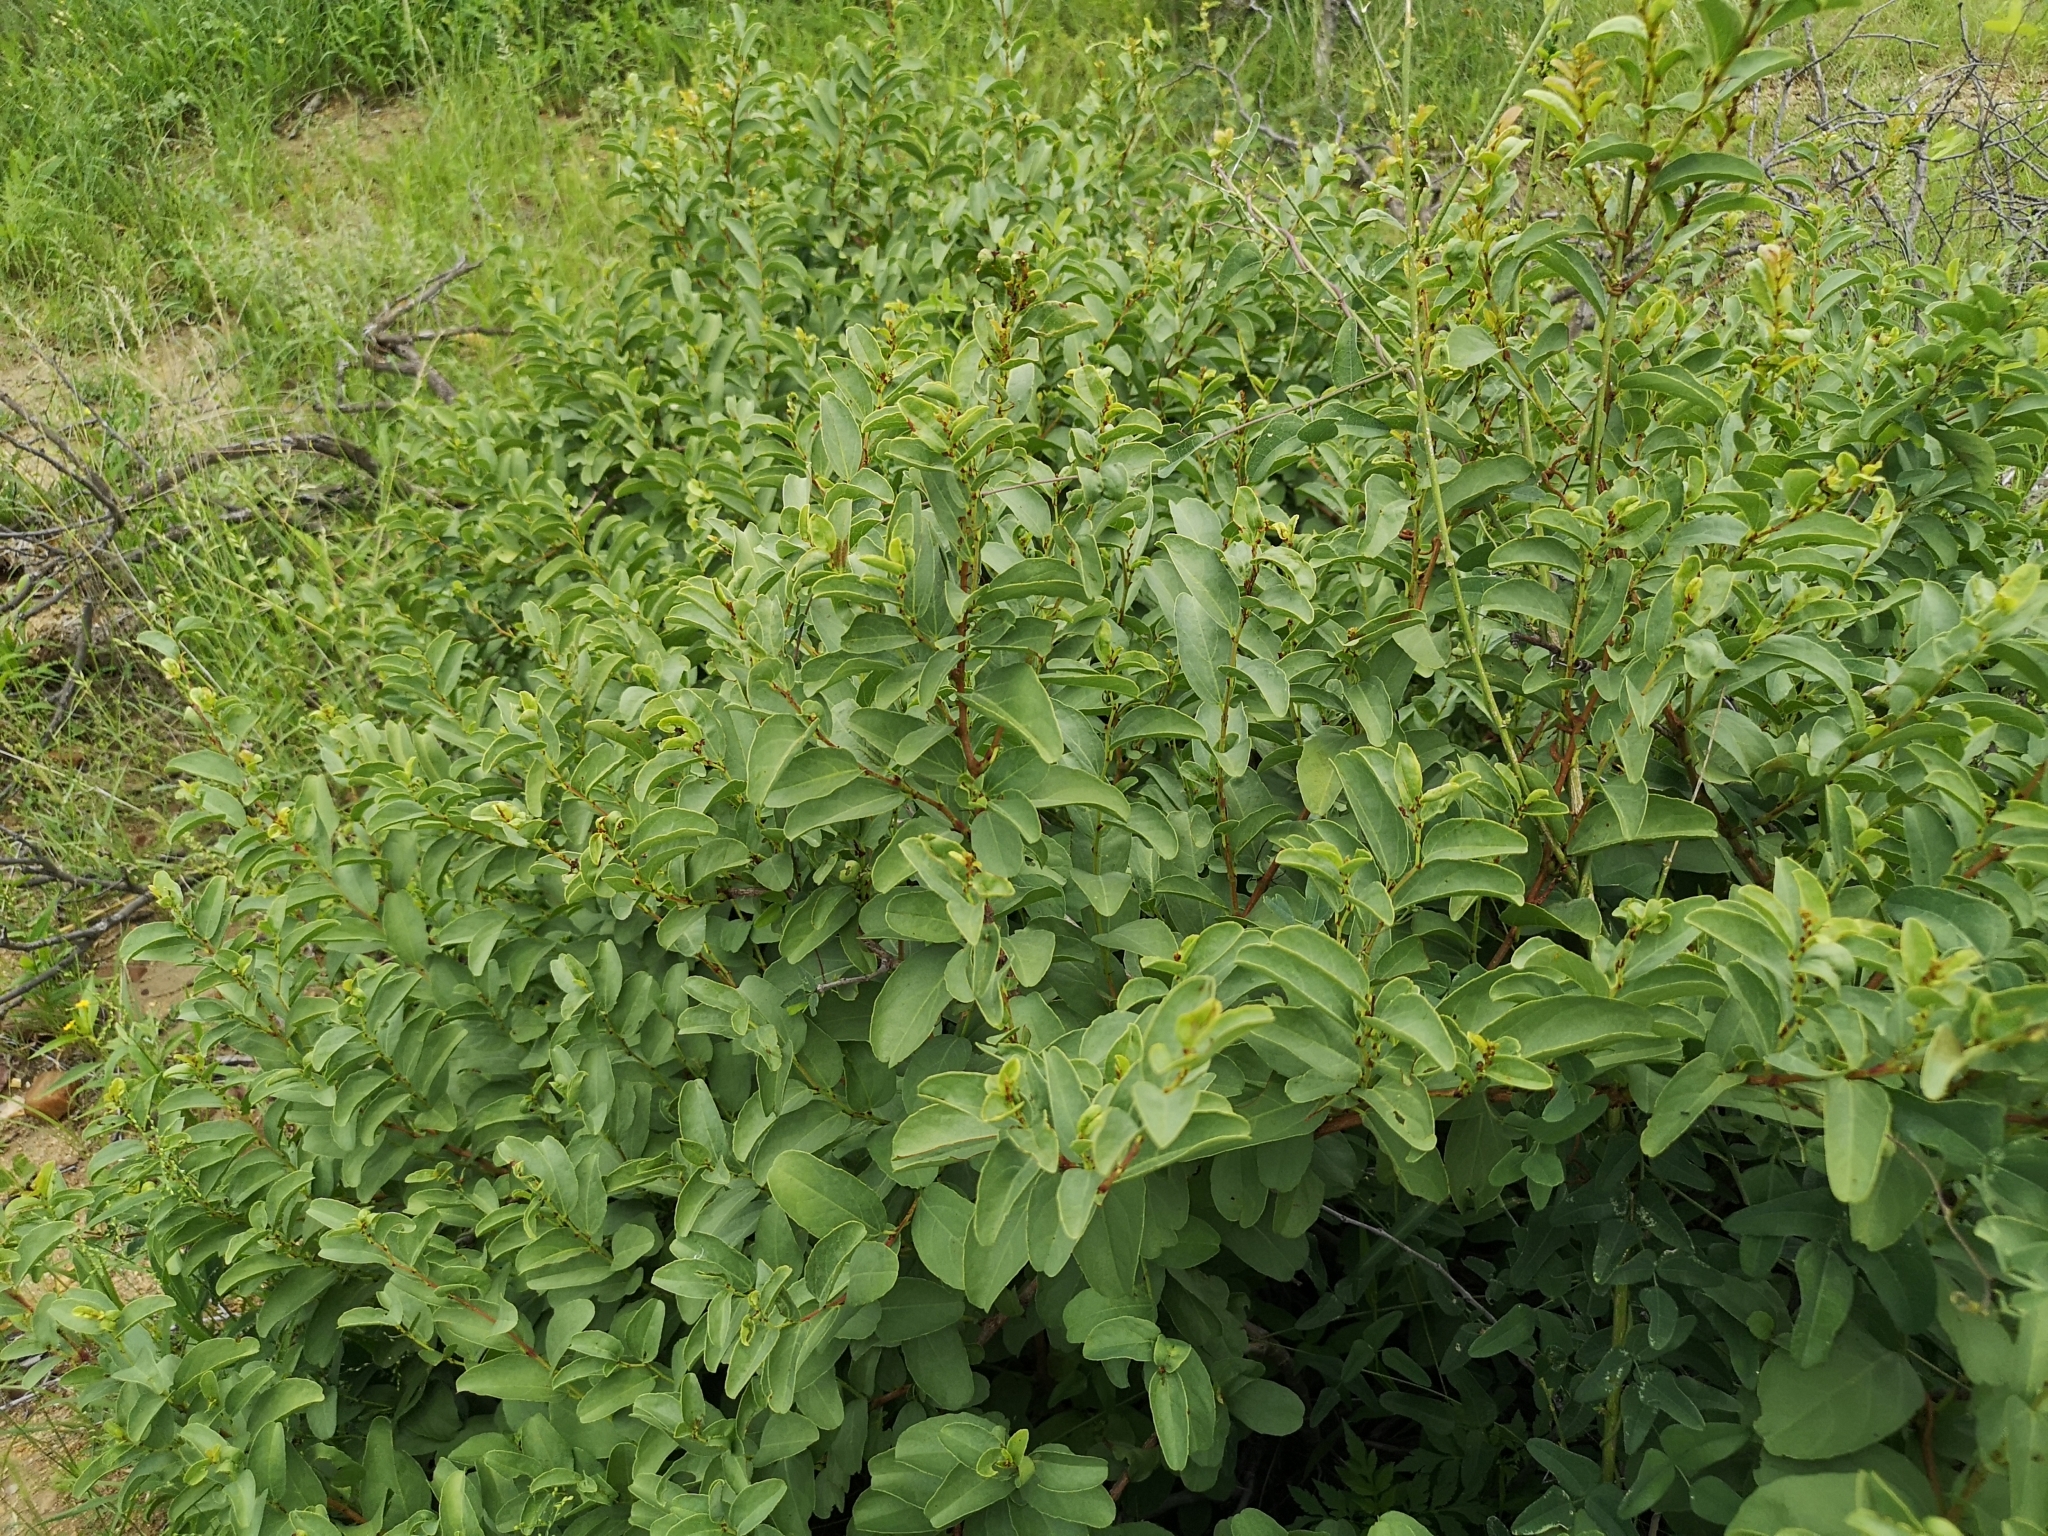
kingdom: Plantae
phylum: Tracheophyta
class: Magnoliopsida
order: Vitales
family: Vitaceae
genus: Cissus
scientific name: Cissus cornifolia
